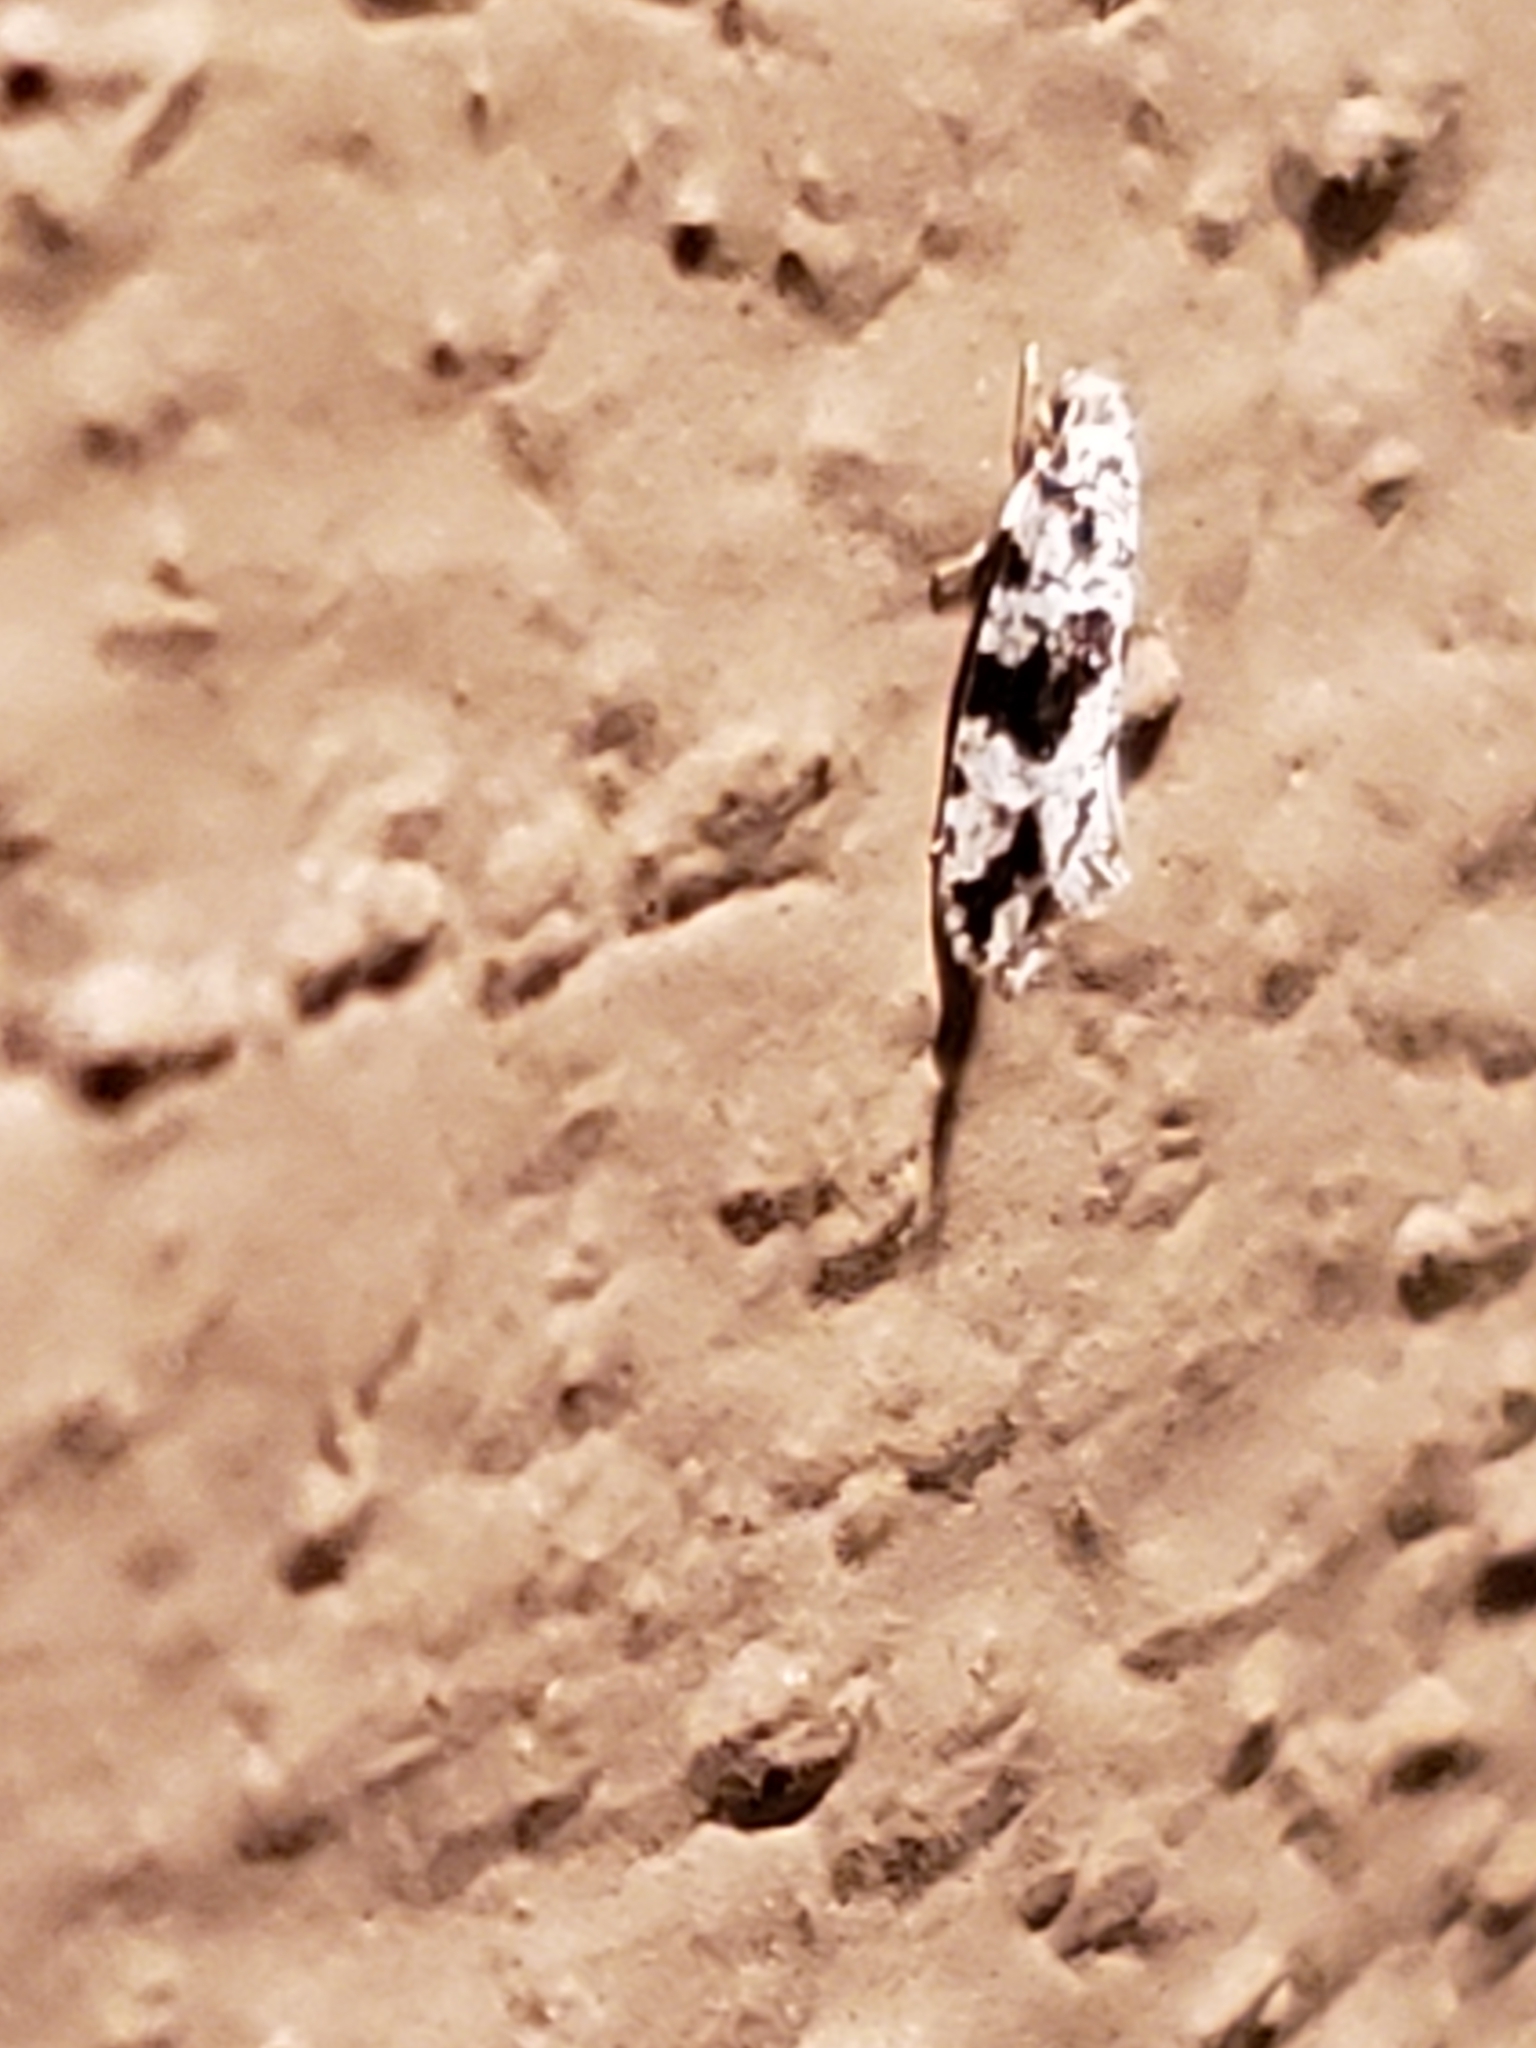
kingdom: Animalia
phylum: Arthropoda
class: Insecta
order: Lepidoptera
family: Tineidae
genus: Nemapogon
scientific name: Nemapogon angulifasciella
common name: Black-patched nemapogon
